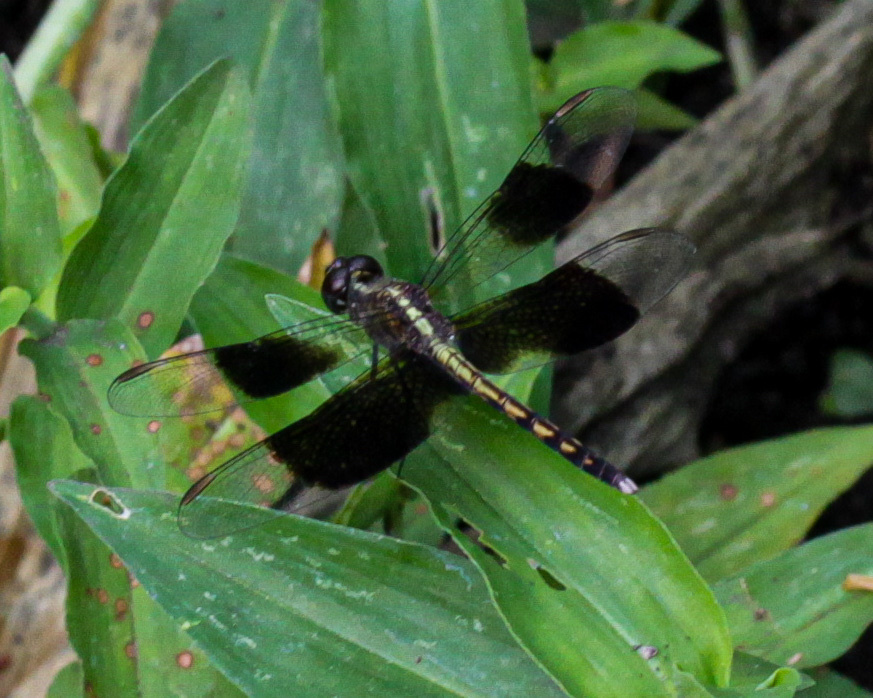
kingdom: Animalia
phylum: Arthropoda
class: Insecta
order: Odonata
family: Libellulidae
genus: Erythrodiplax
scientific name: Erythrodiplax funerea
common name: Black-winged dragonlet
